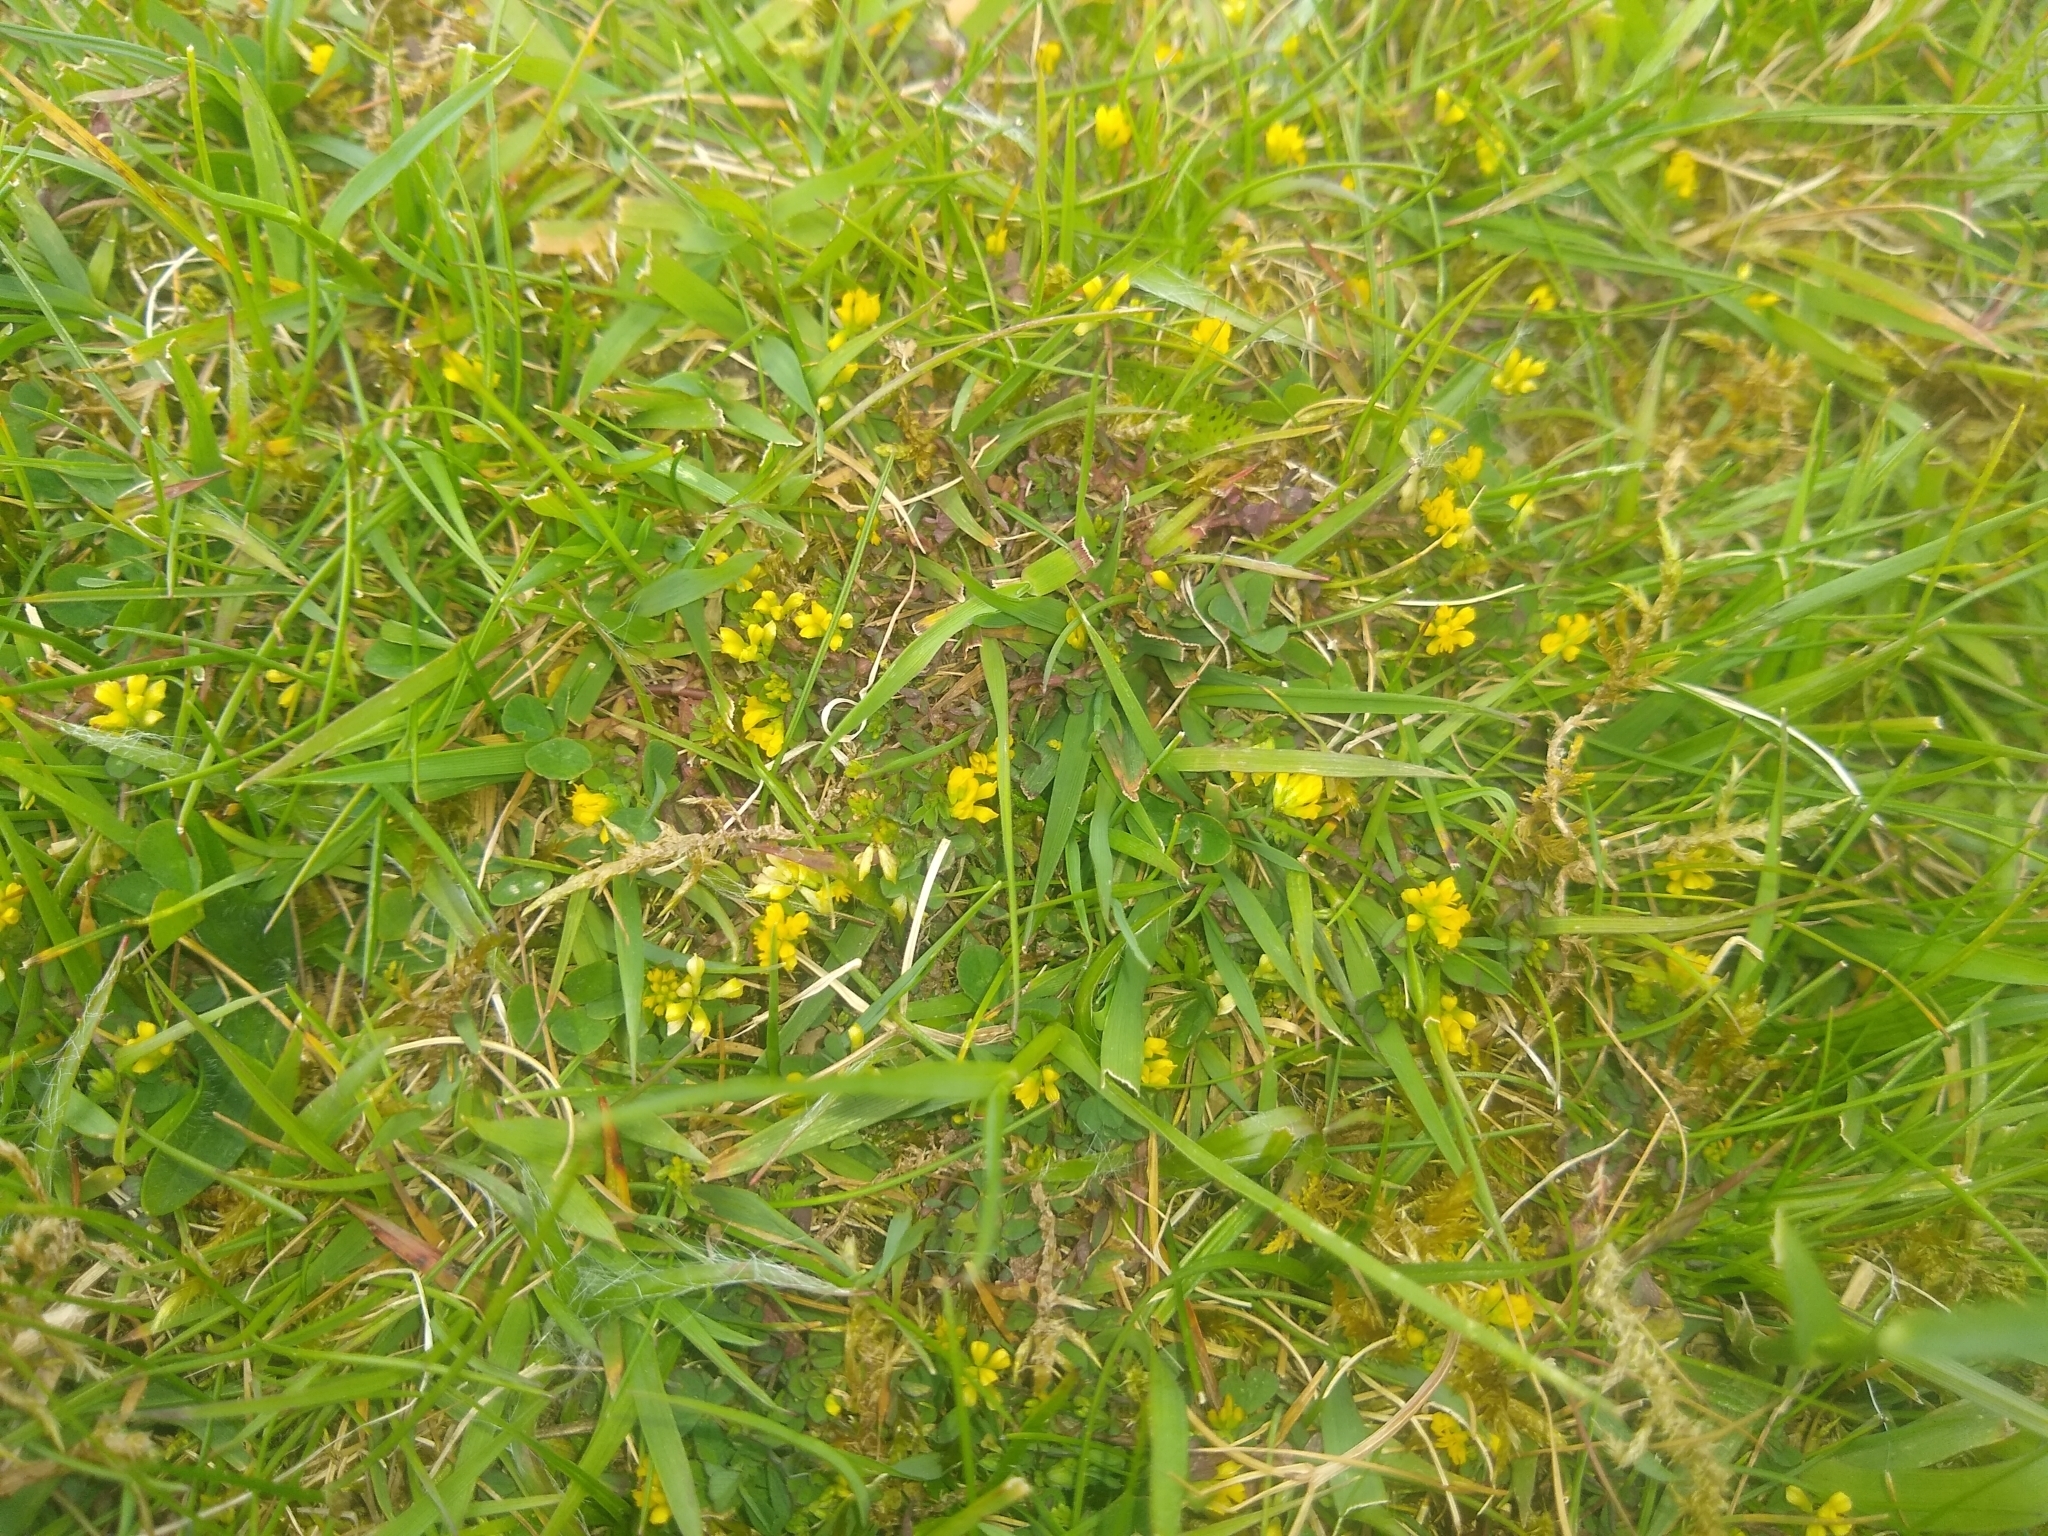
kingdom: Plantae
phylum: Tracheophyta
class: Magnoliopsida
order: Fabales
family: Fabaceae
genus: Trifolium
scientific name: Trifolium dubium
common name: Suckling clover
